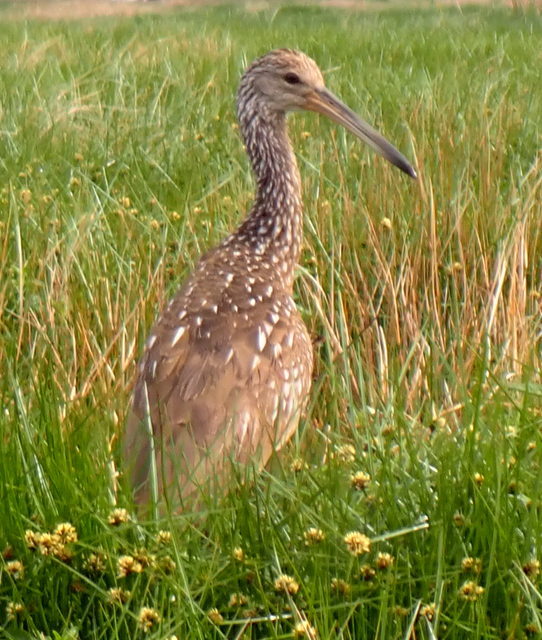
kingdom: Animalia
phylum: Chordata
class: Aves
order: Gruiformes
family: Aramidae
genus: Aramus
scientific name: Aramus guarauna
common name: Limpkin
